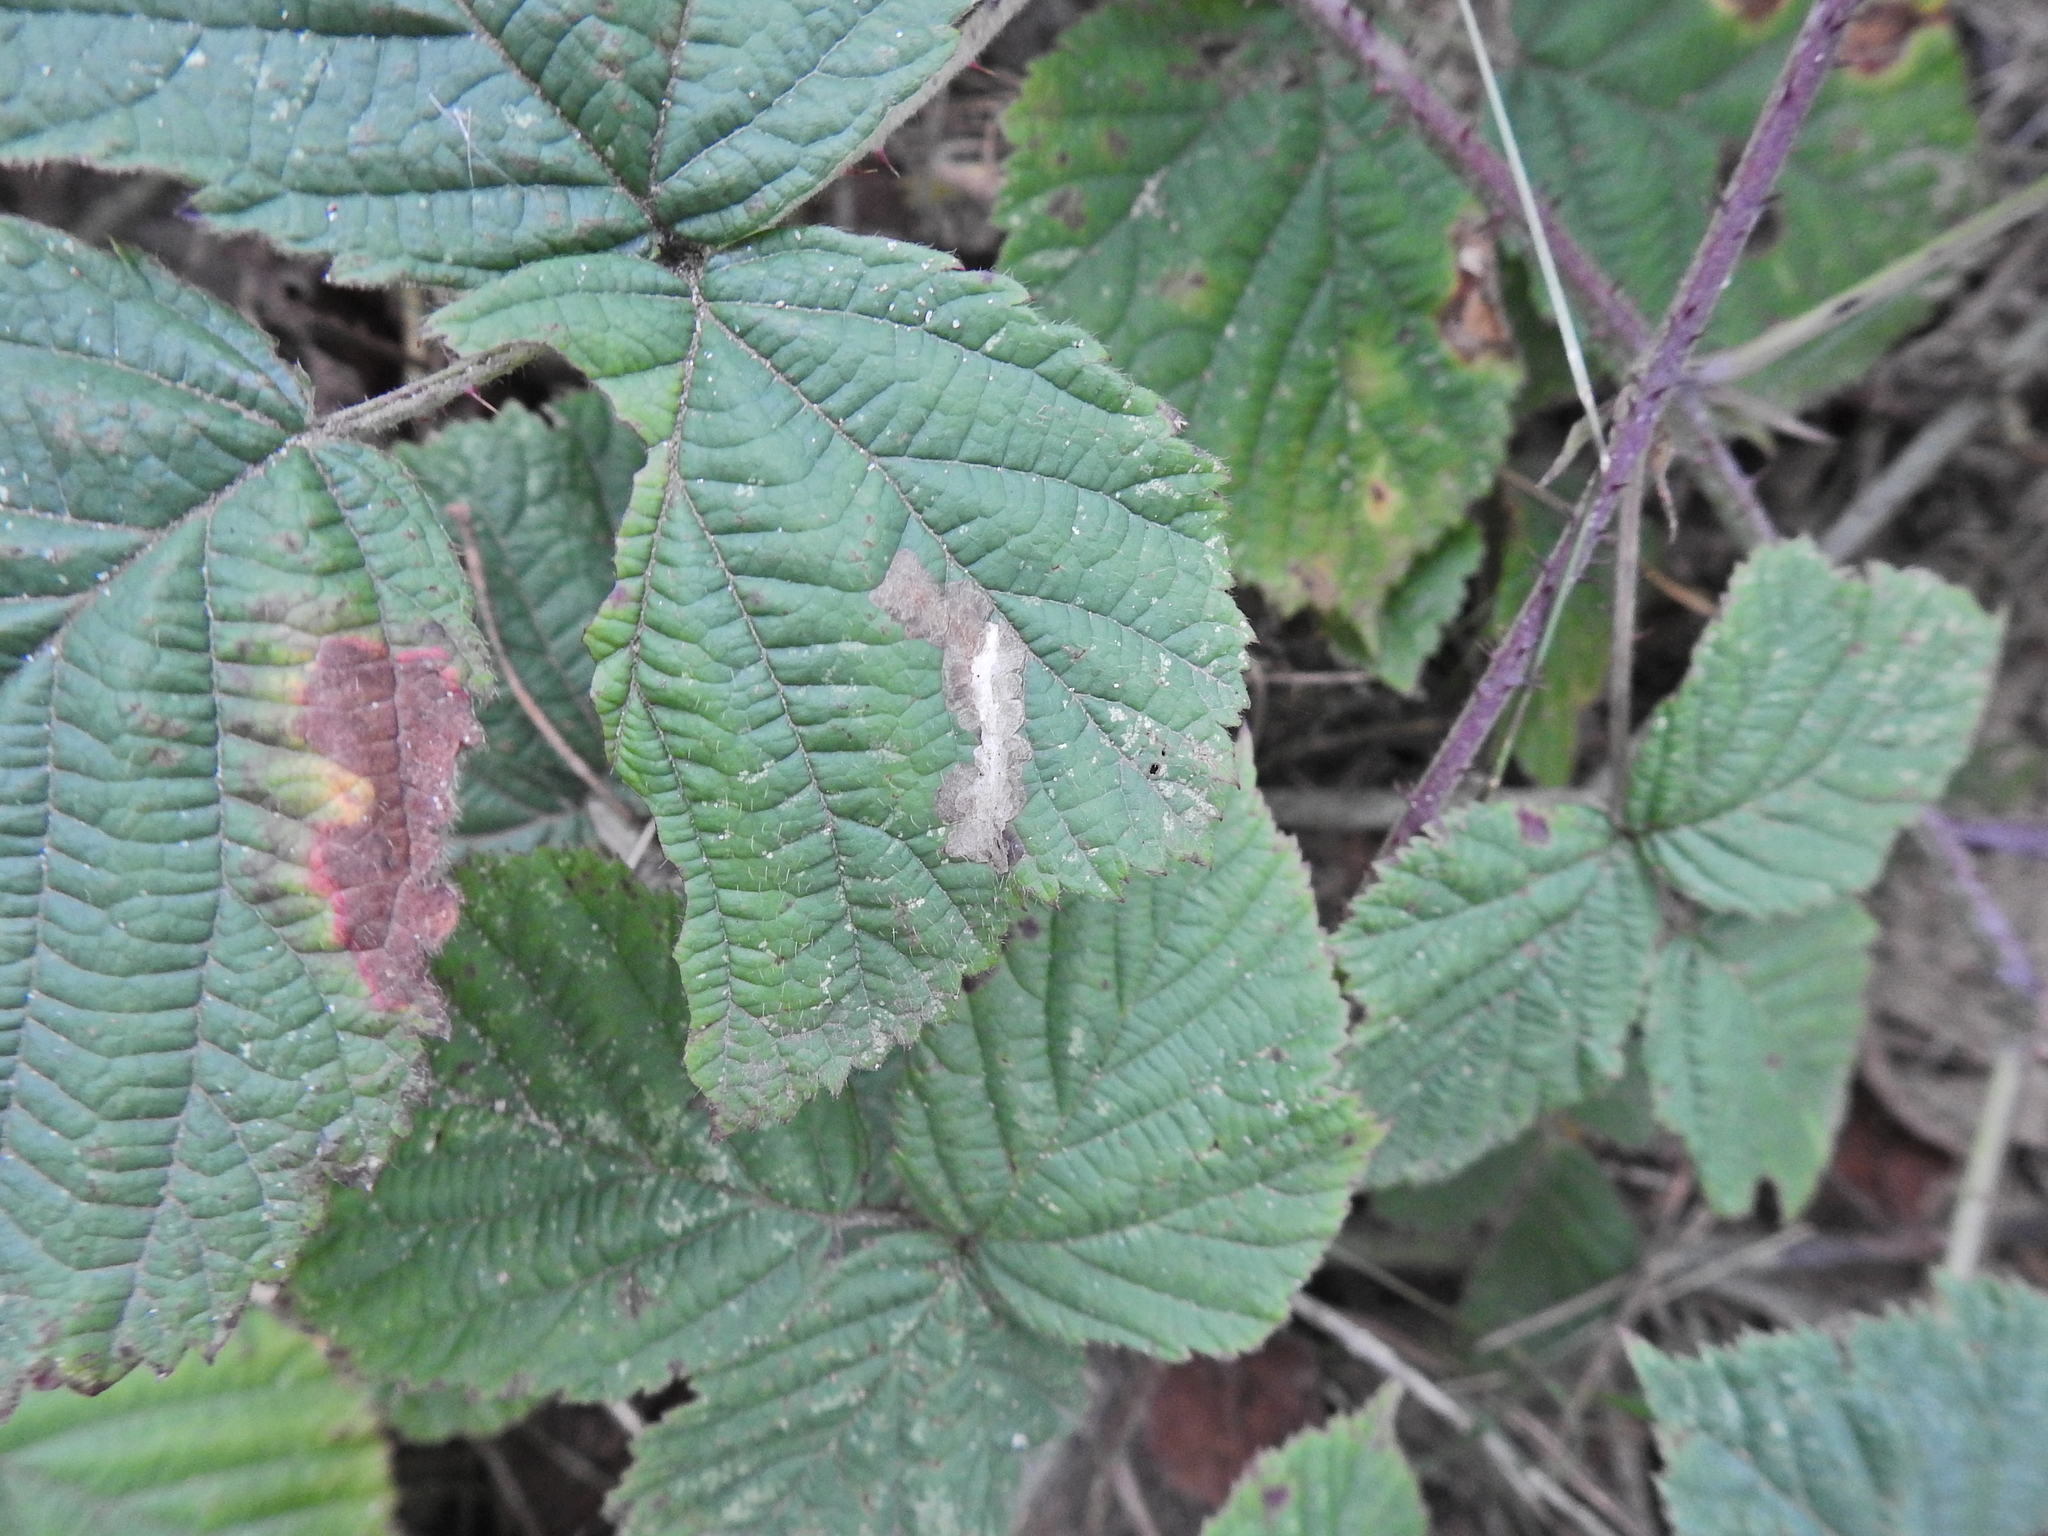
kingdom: Animalia
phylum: Arthropoda
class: Insecta
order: Lepidoptera
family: Tischeriidae
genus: Coptotriche
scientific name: Coptotriche marginea
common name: Bordered carl
